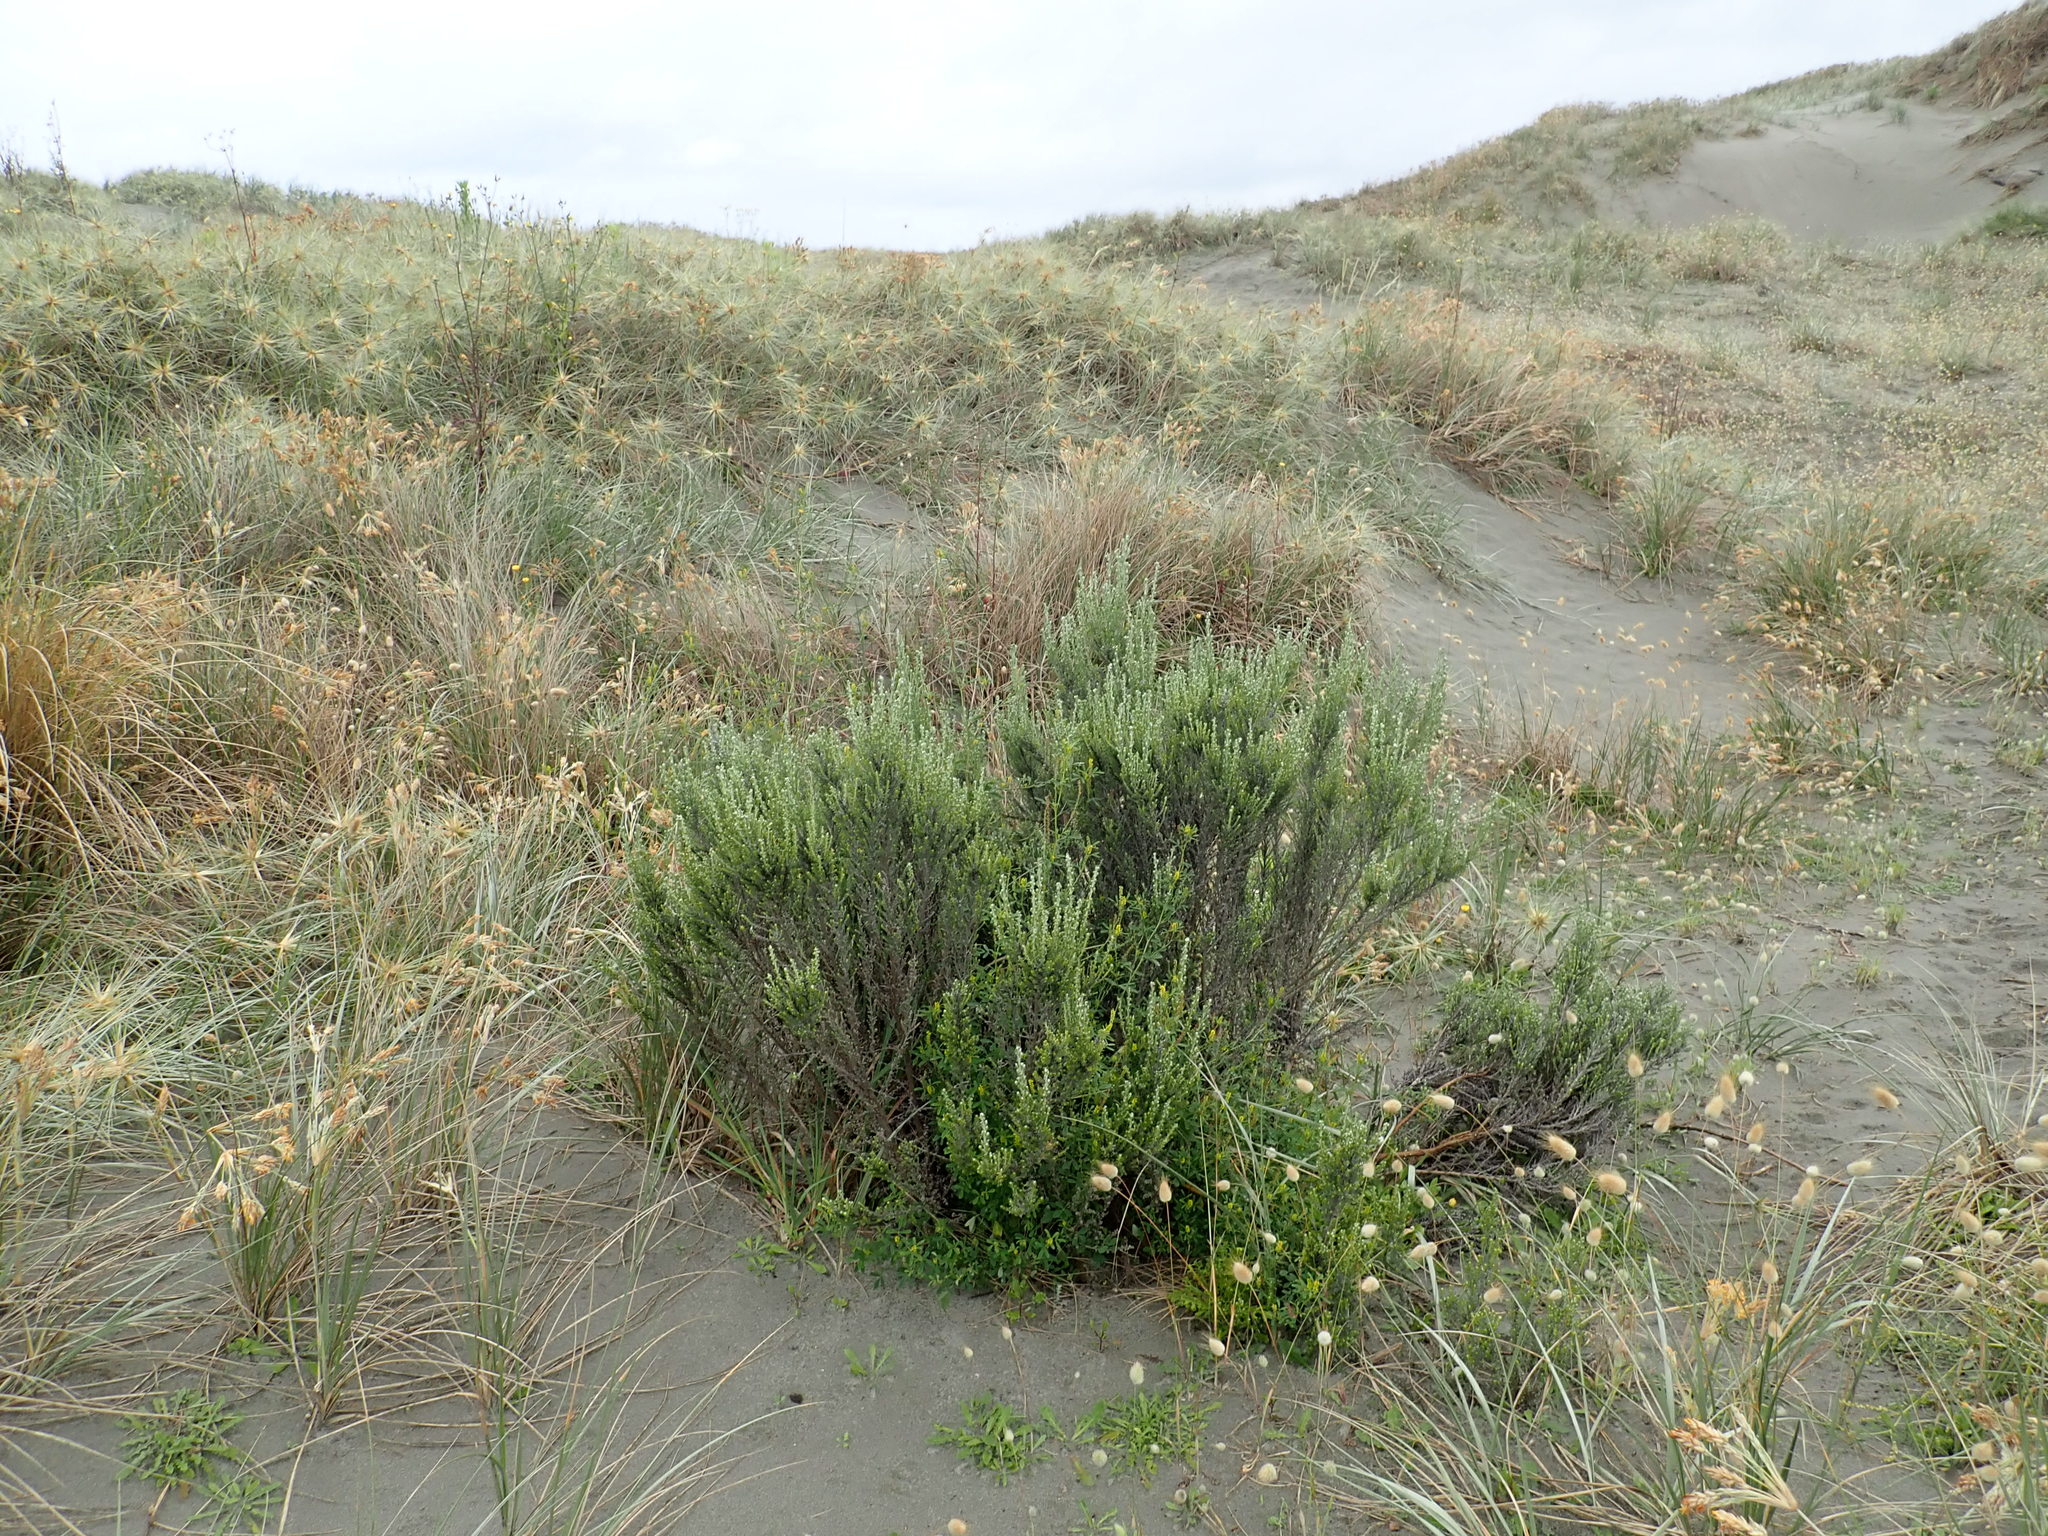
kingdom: Plantae
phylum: Tracheophyta
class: Magnoliopsida
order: Asterales
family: Asteraceae
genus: Ozothamnus
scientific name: Ozothamnus leptophyllus
